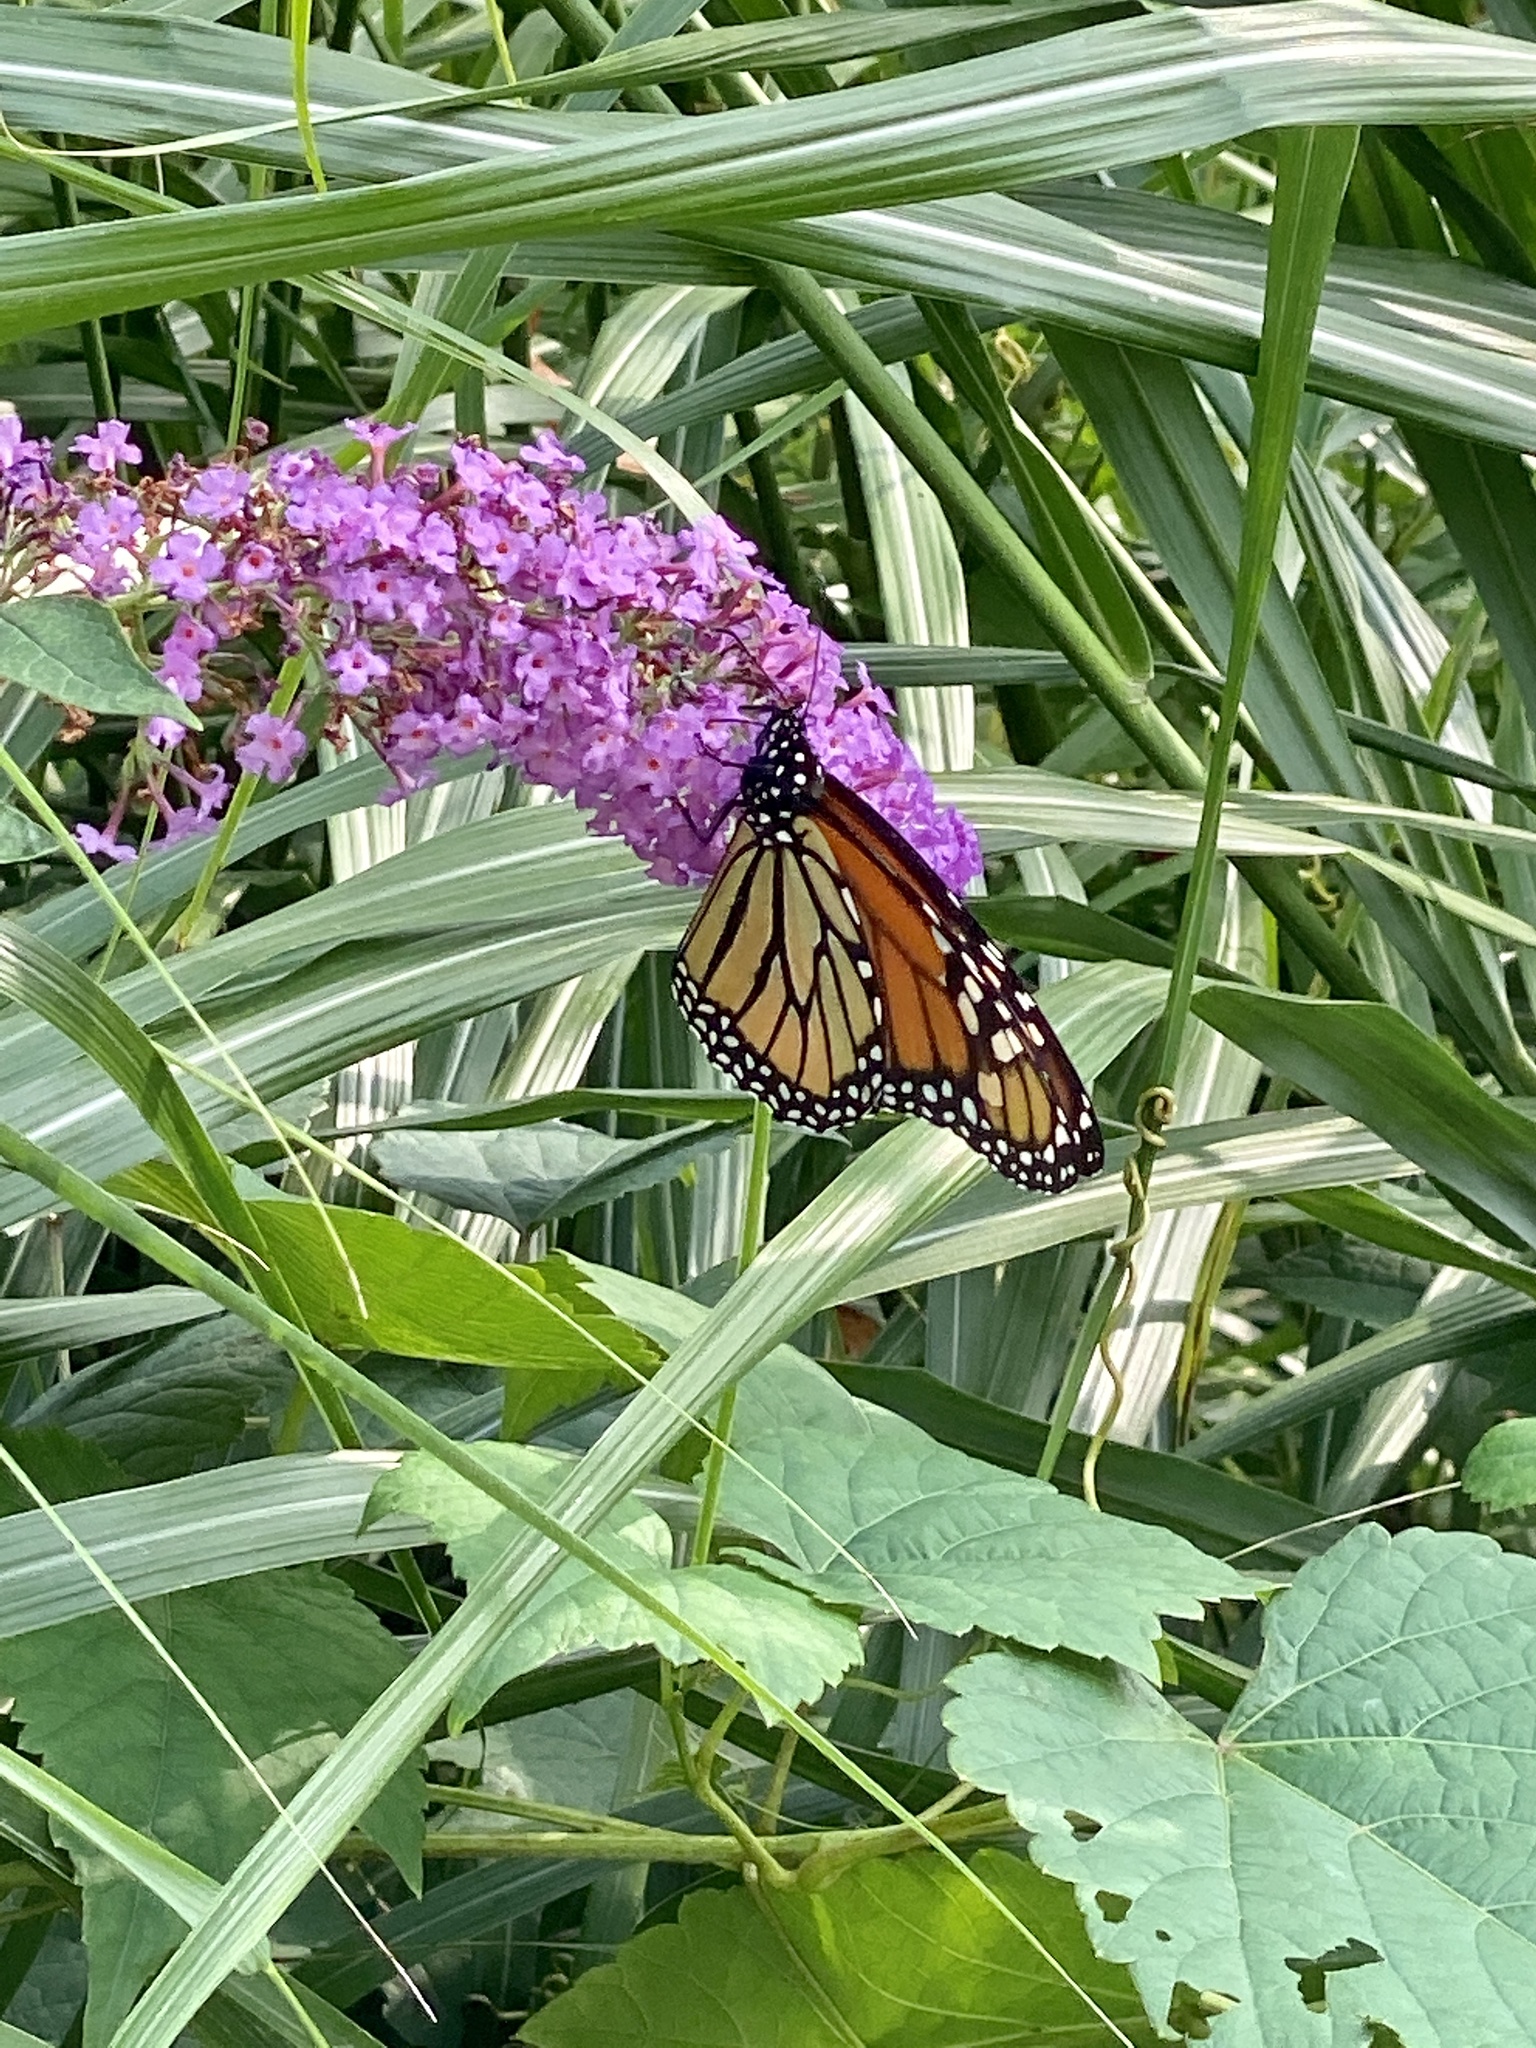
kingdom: Animalia
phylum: Arthropoda
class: Insecta
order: Lepidoptera
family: Nymphalidae
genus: Danaus
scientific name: Danaus plexippus
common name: Monarch
